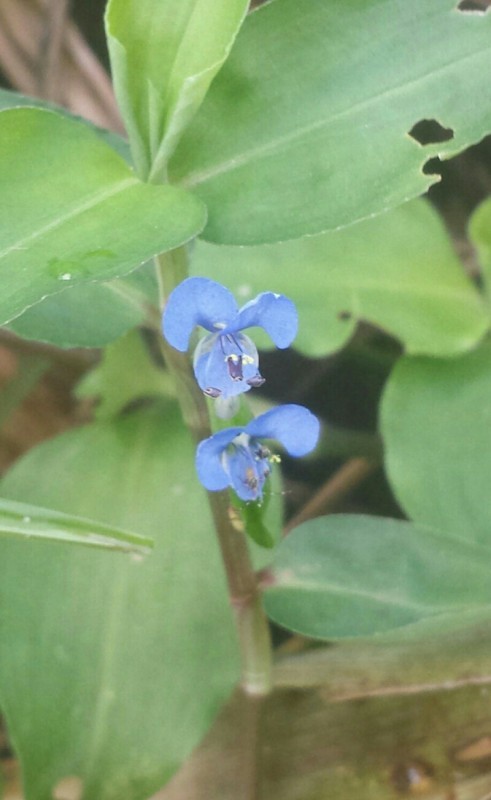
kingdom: Plantae
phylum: Tracheophyta
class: Liliopsida
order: Commelinales
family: Commelinaceae
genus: Commelina
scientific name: Commelina diffusa
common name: Climbing dayflower
